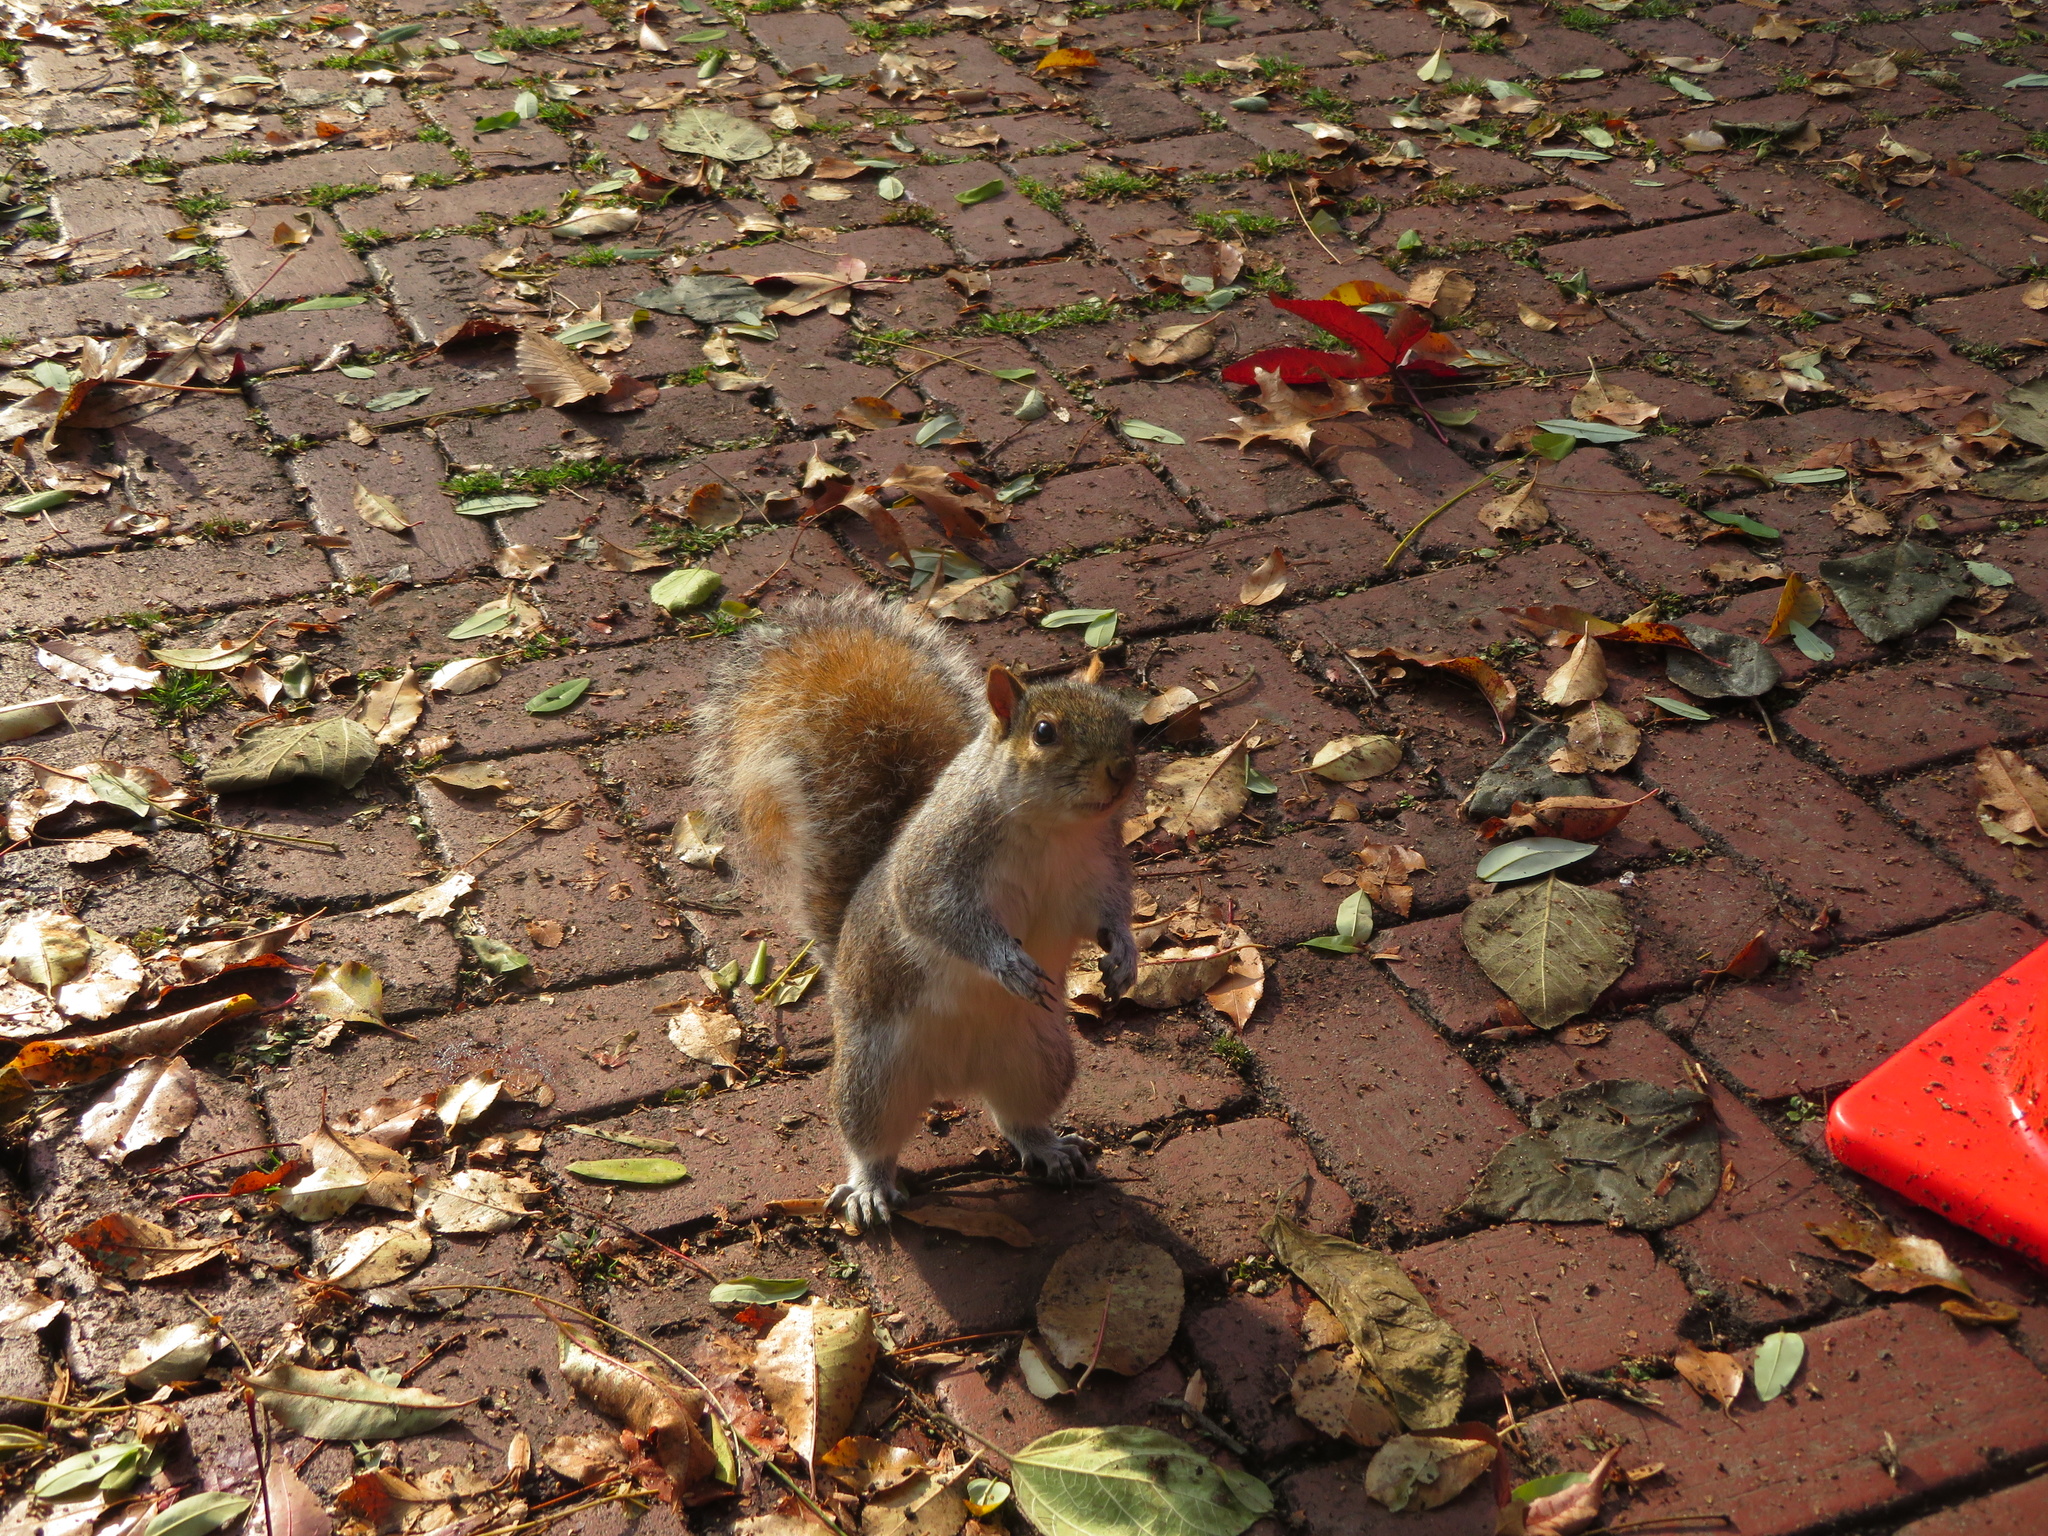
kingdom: Animalia
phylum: Chordata
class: Mammalia
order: Rodentia
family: Sciuridae
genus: Sciurus
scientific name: Sciurus carolinensis
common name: Eastern gray squirrel
